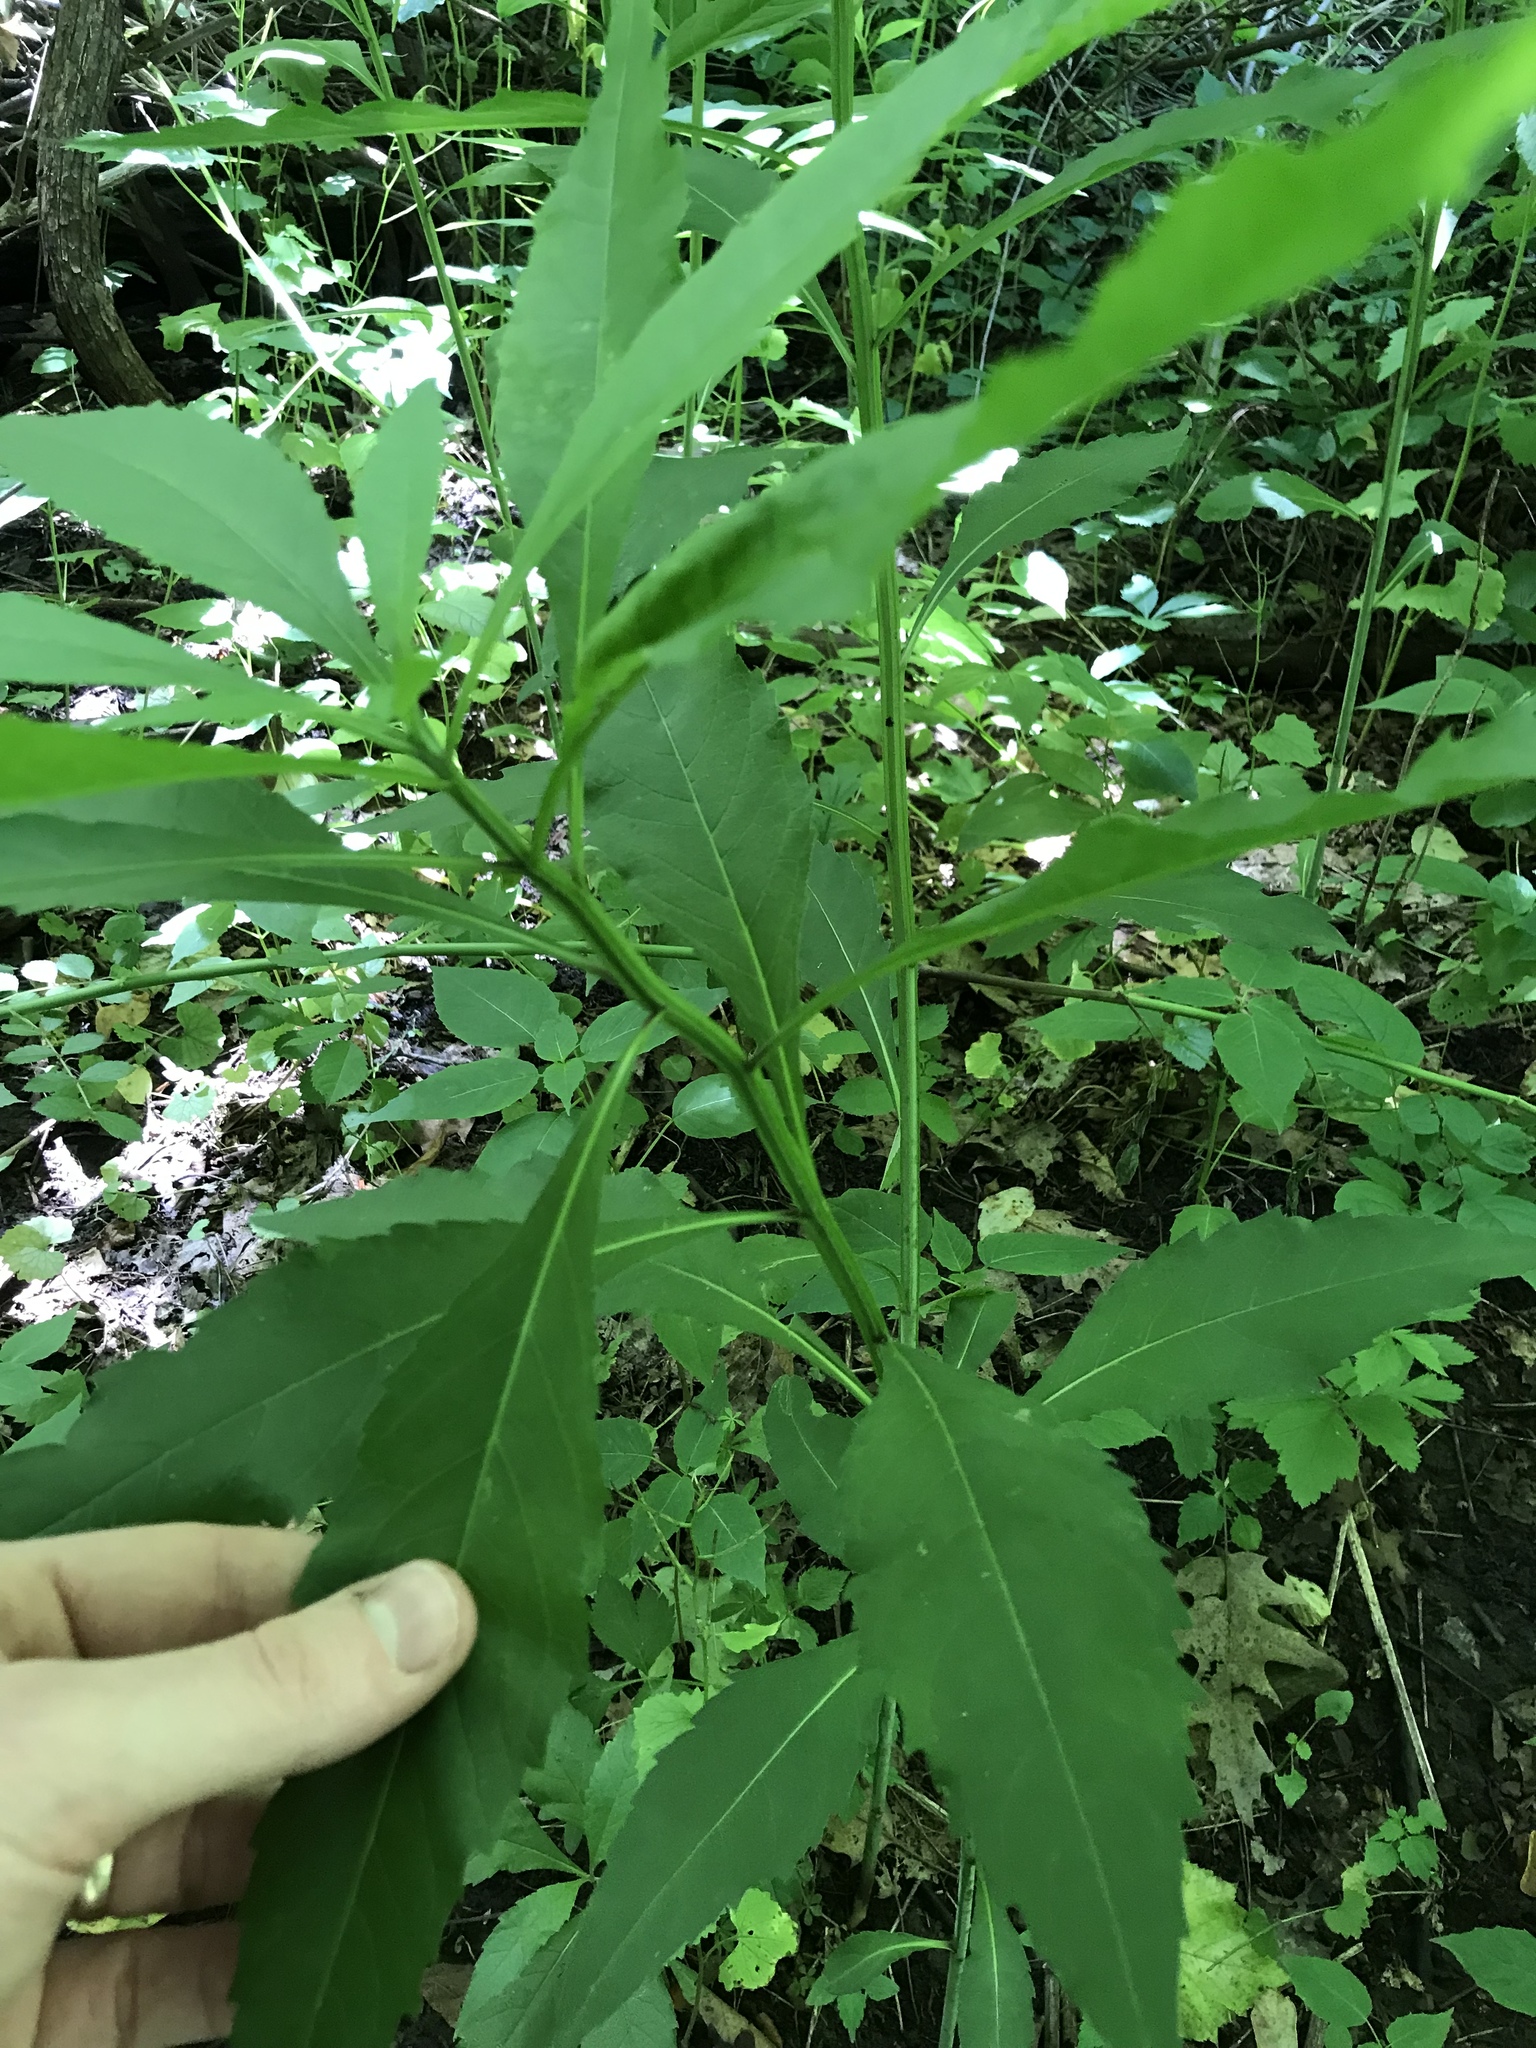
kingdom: Plantae
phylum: Tracheophyta
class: Magnoliopsida
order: Asterales
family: Asteraceae
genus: Verbesina
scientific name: Verbesina alternifolia
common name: Wingstem
